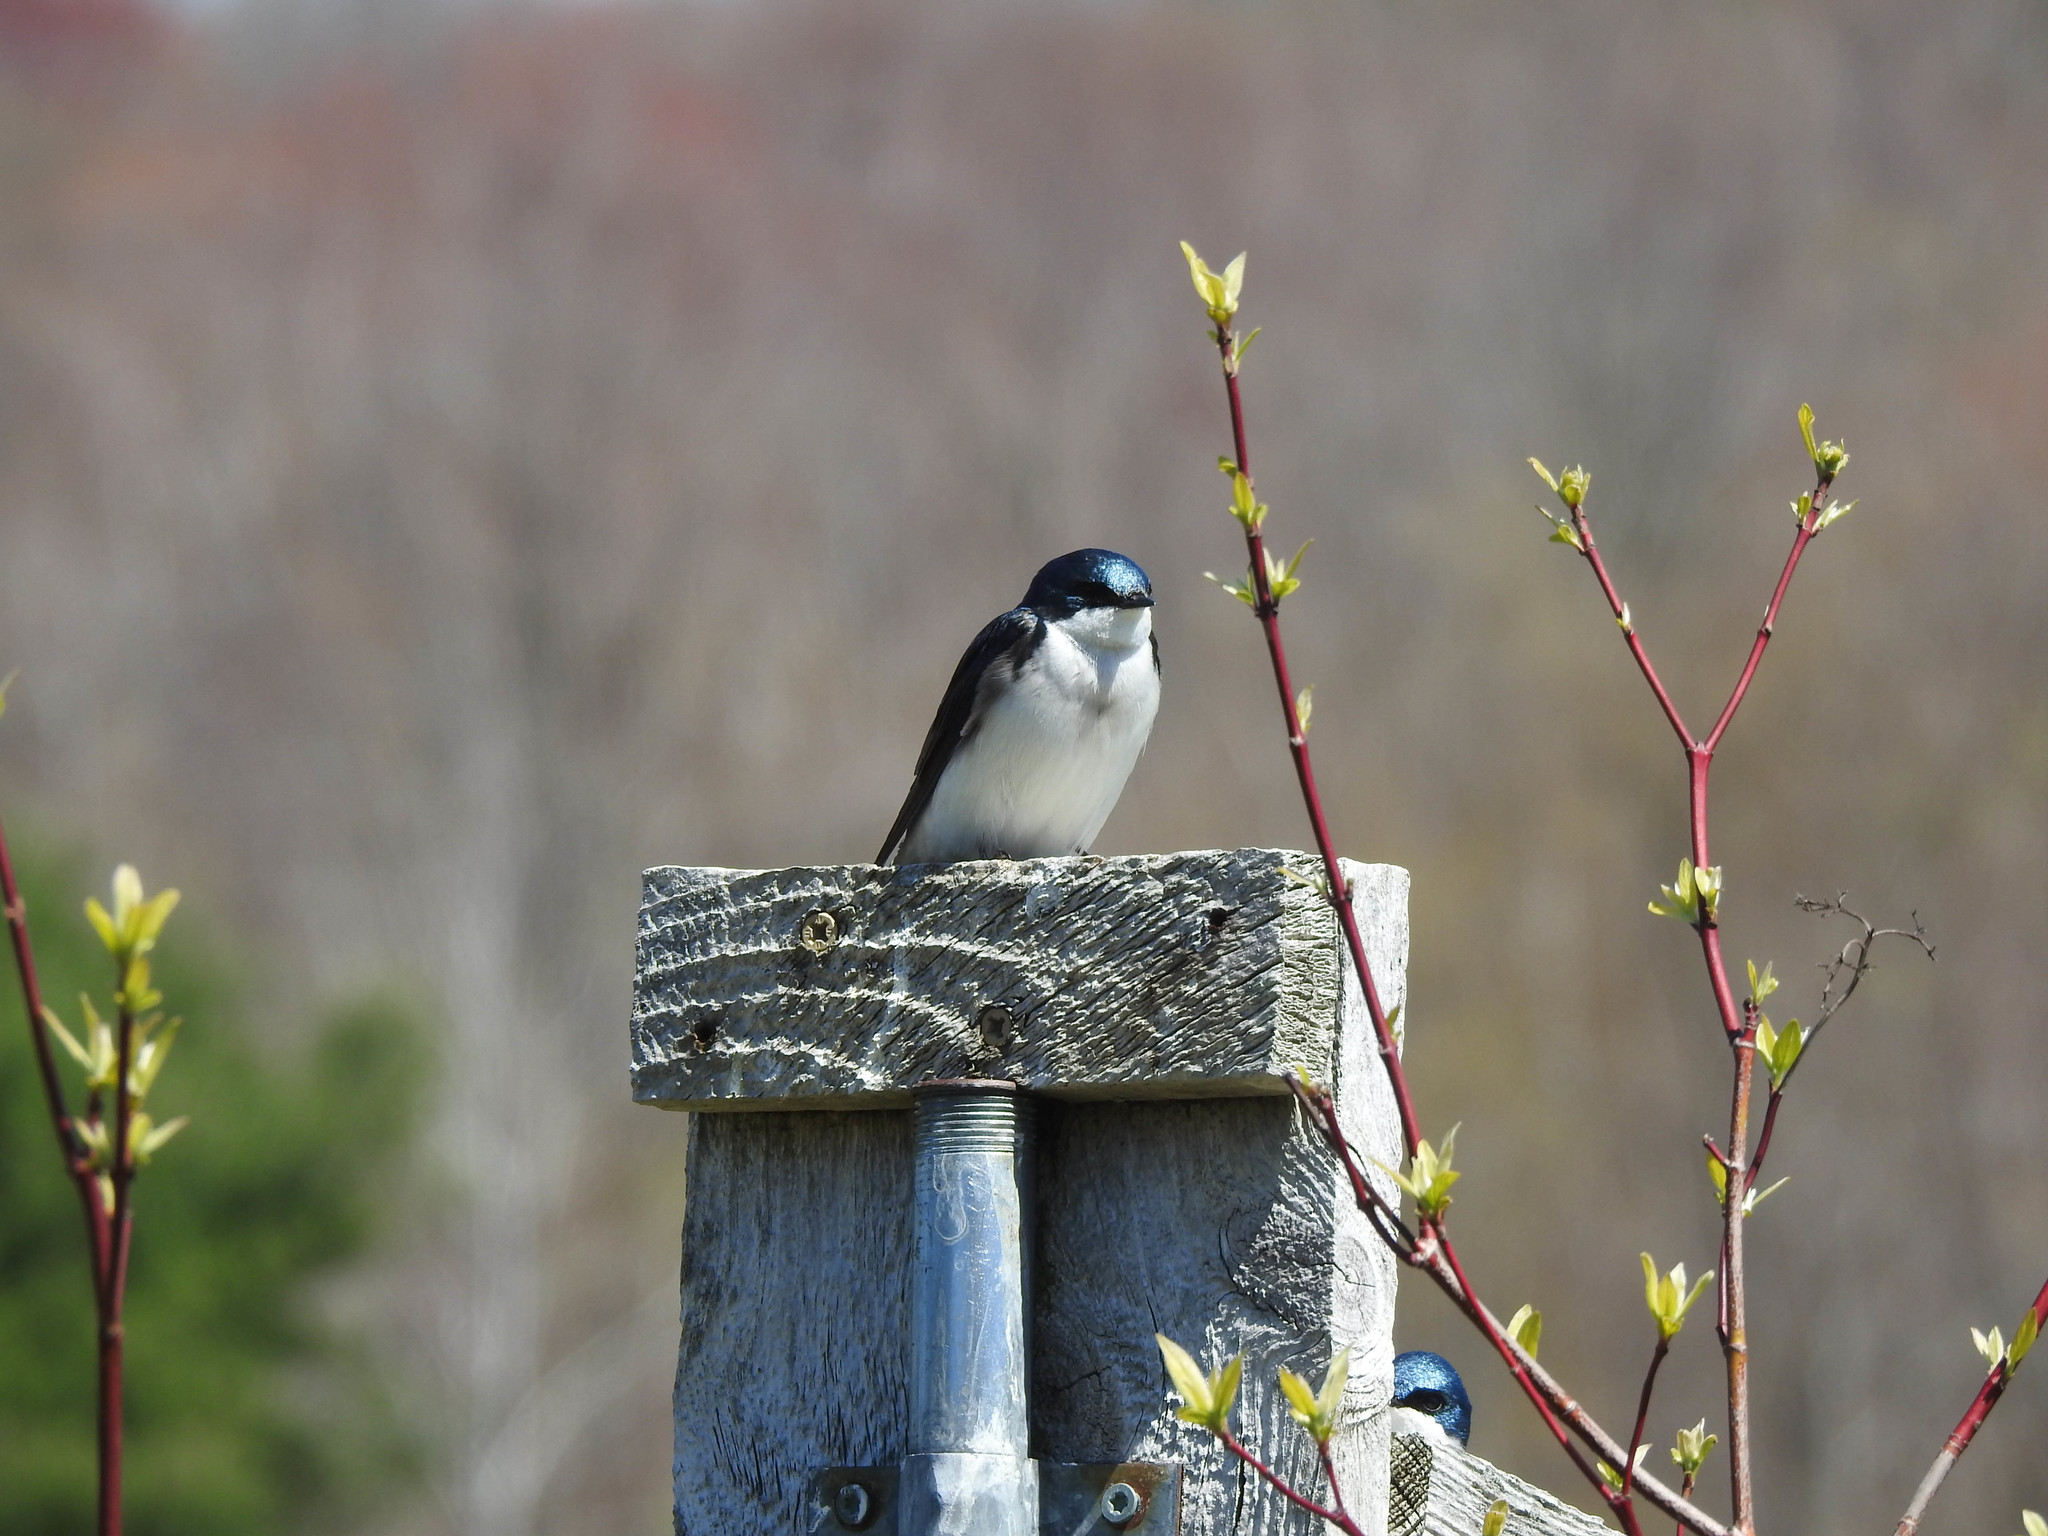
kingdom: Animalia
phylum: Chordata
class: Aves
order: Passeriformes
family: Hirundinidae
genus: Tachycineta
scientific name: Tachycineta bicolor
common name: Tree swallow
